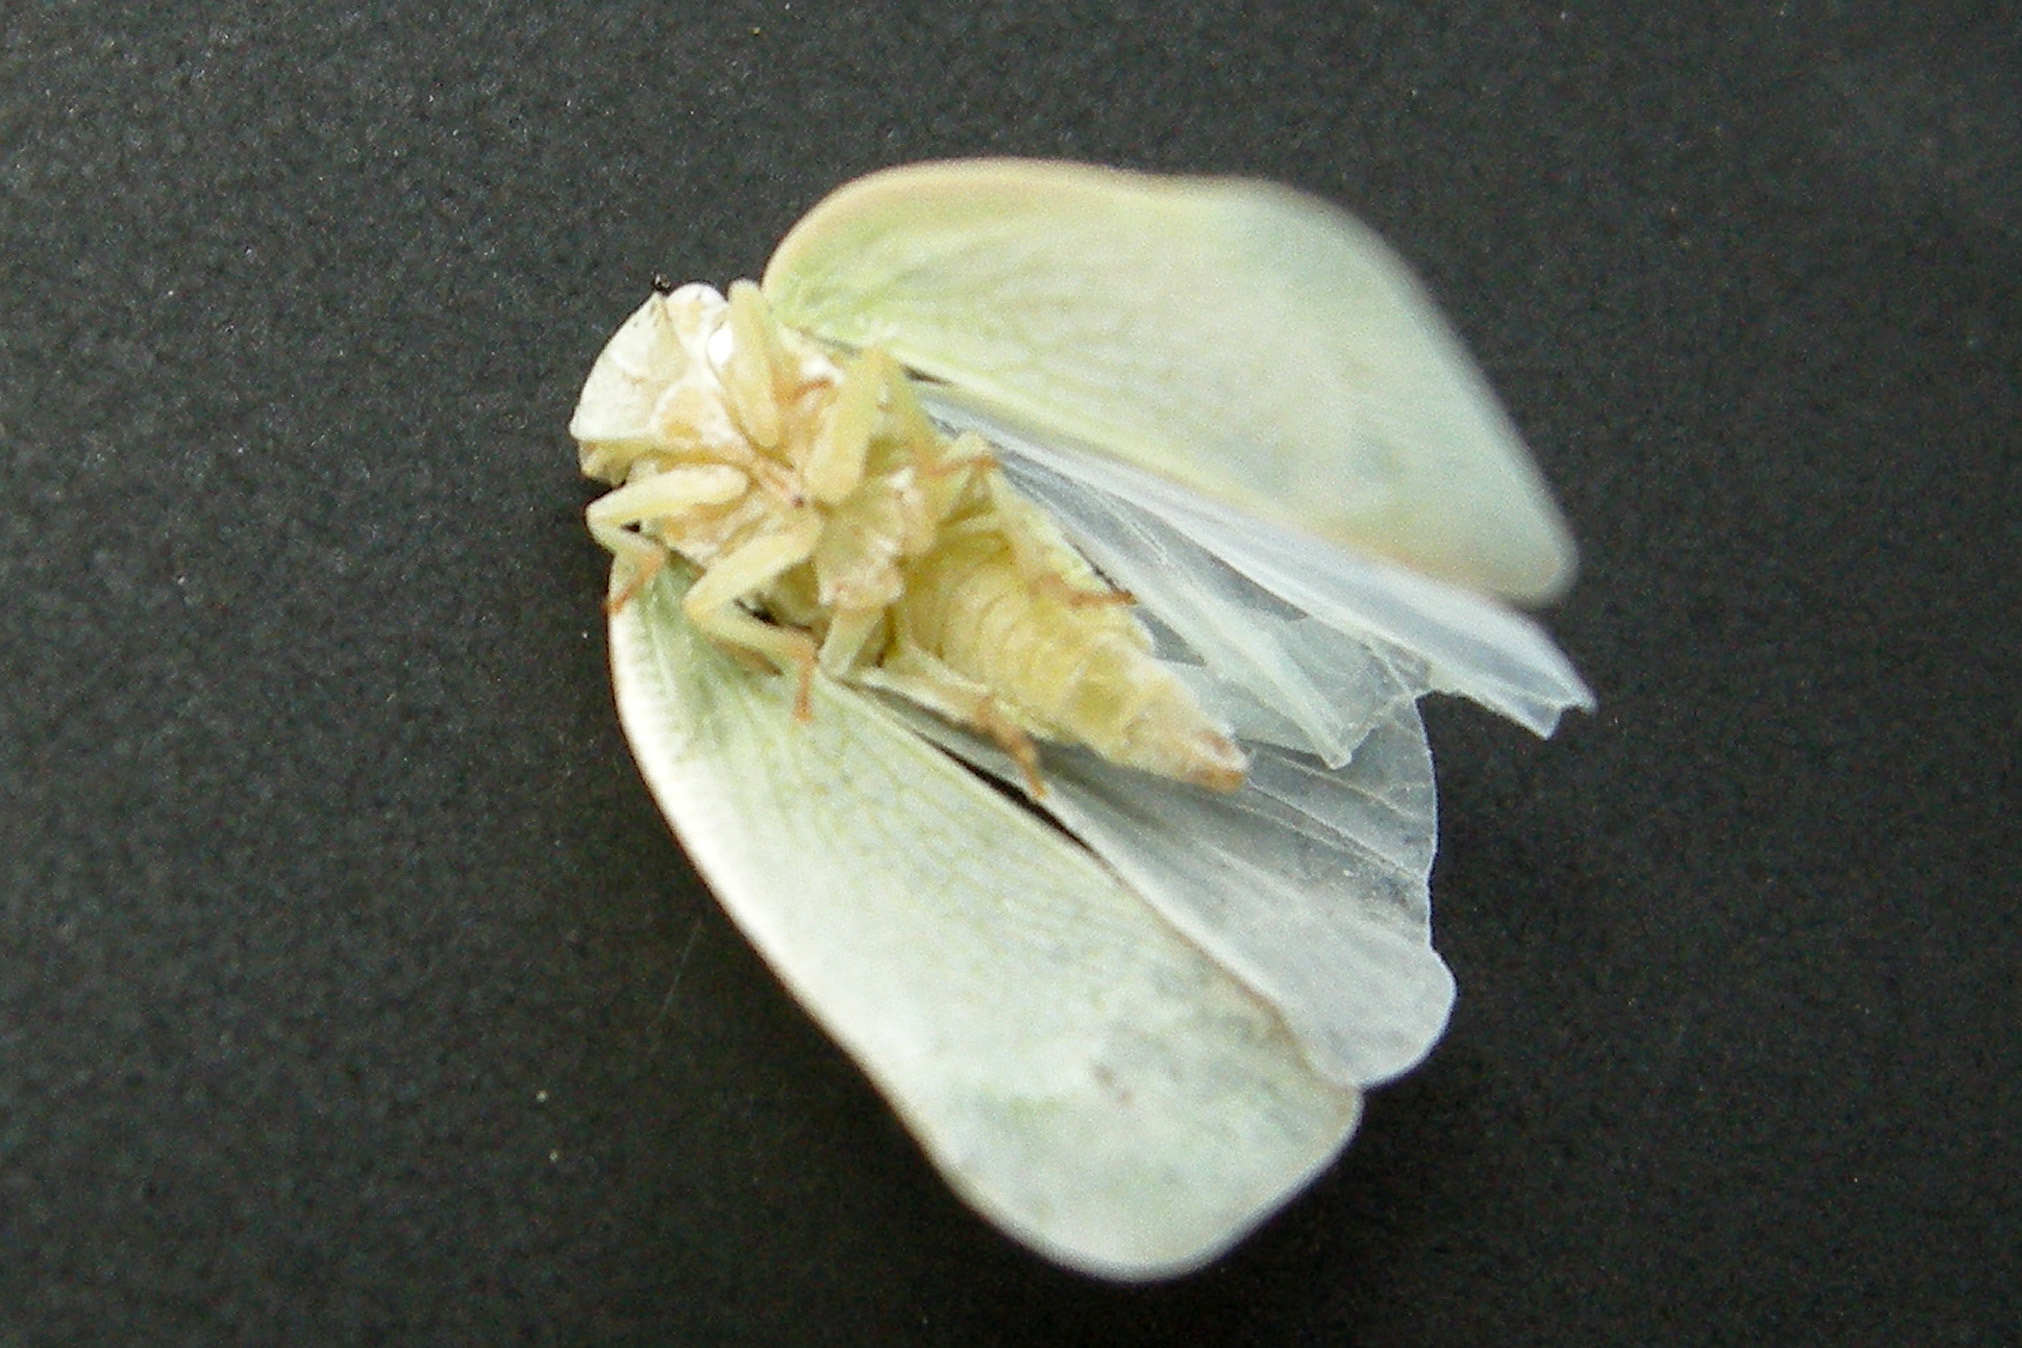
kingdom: Animalia
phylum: Arthropoda
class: Insecta
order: Hemiptera
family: Flatidae
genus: Flatormenis
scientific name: Flatormenis proxima
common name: Northern flatid planthopper
